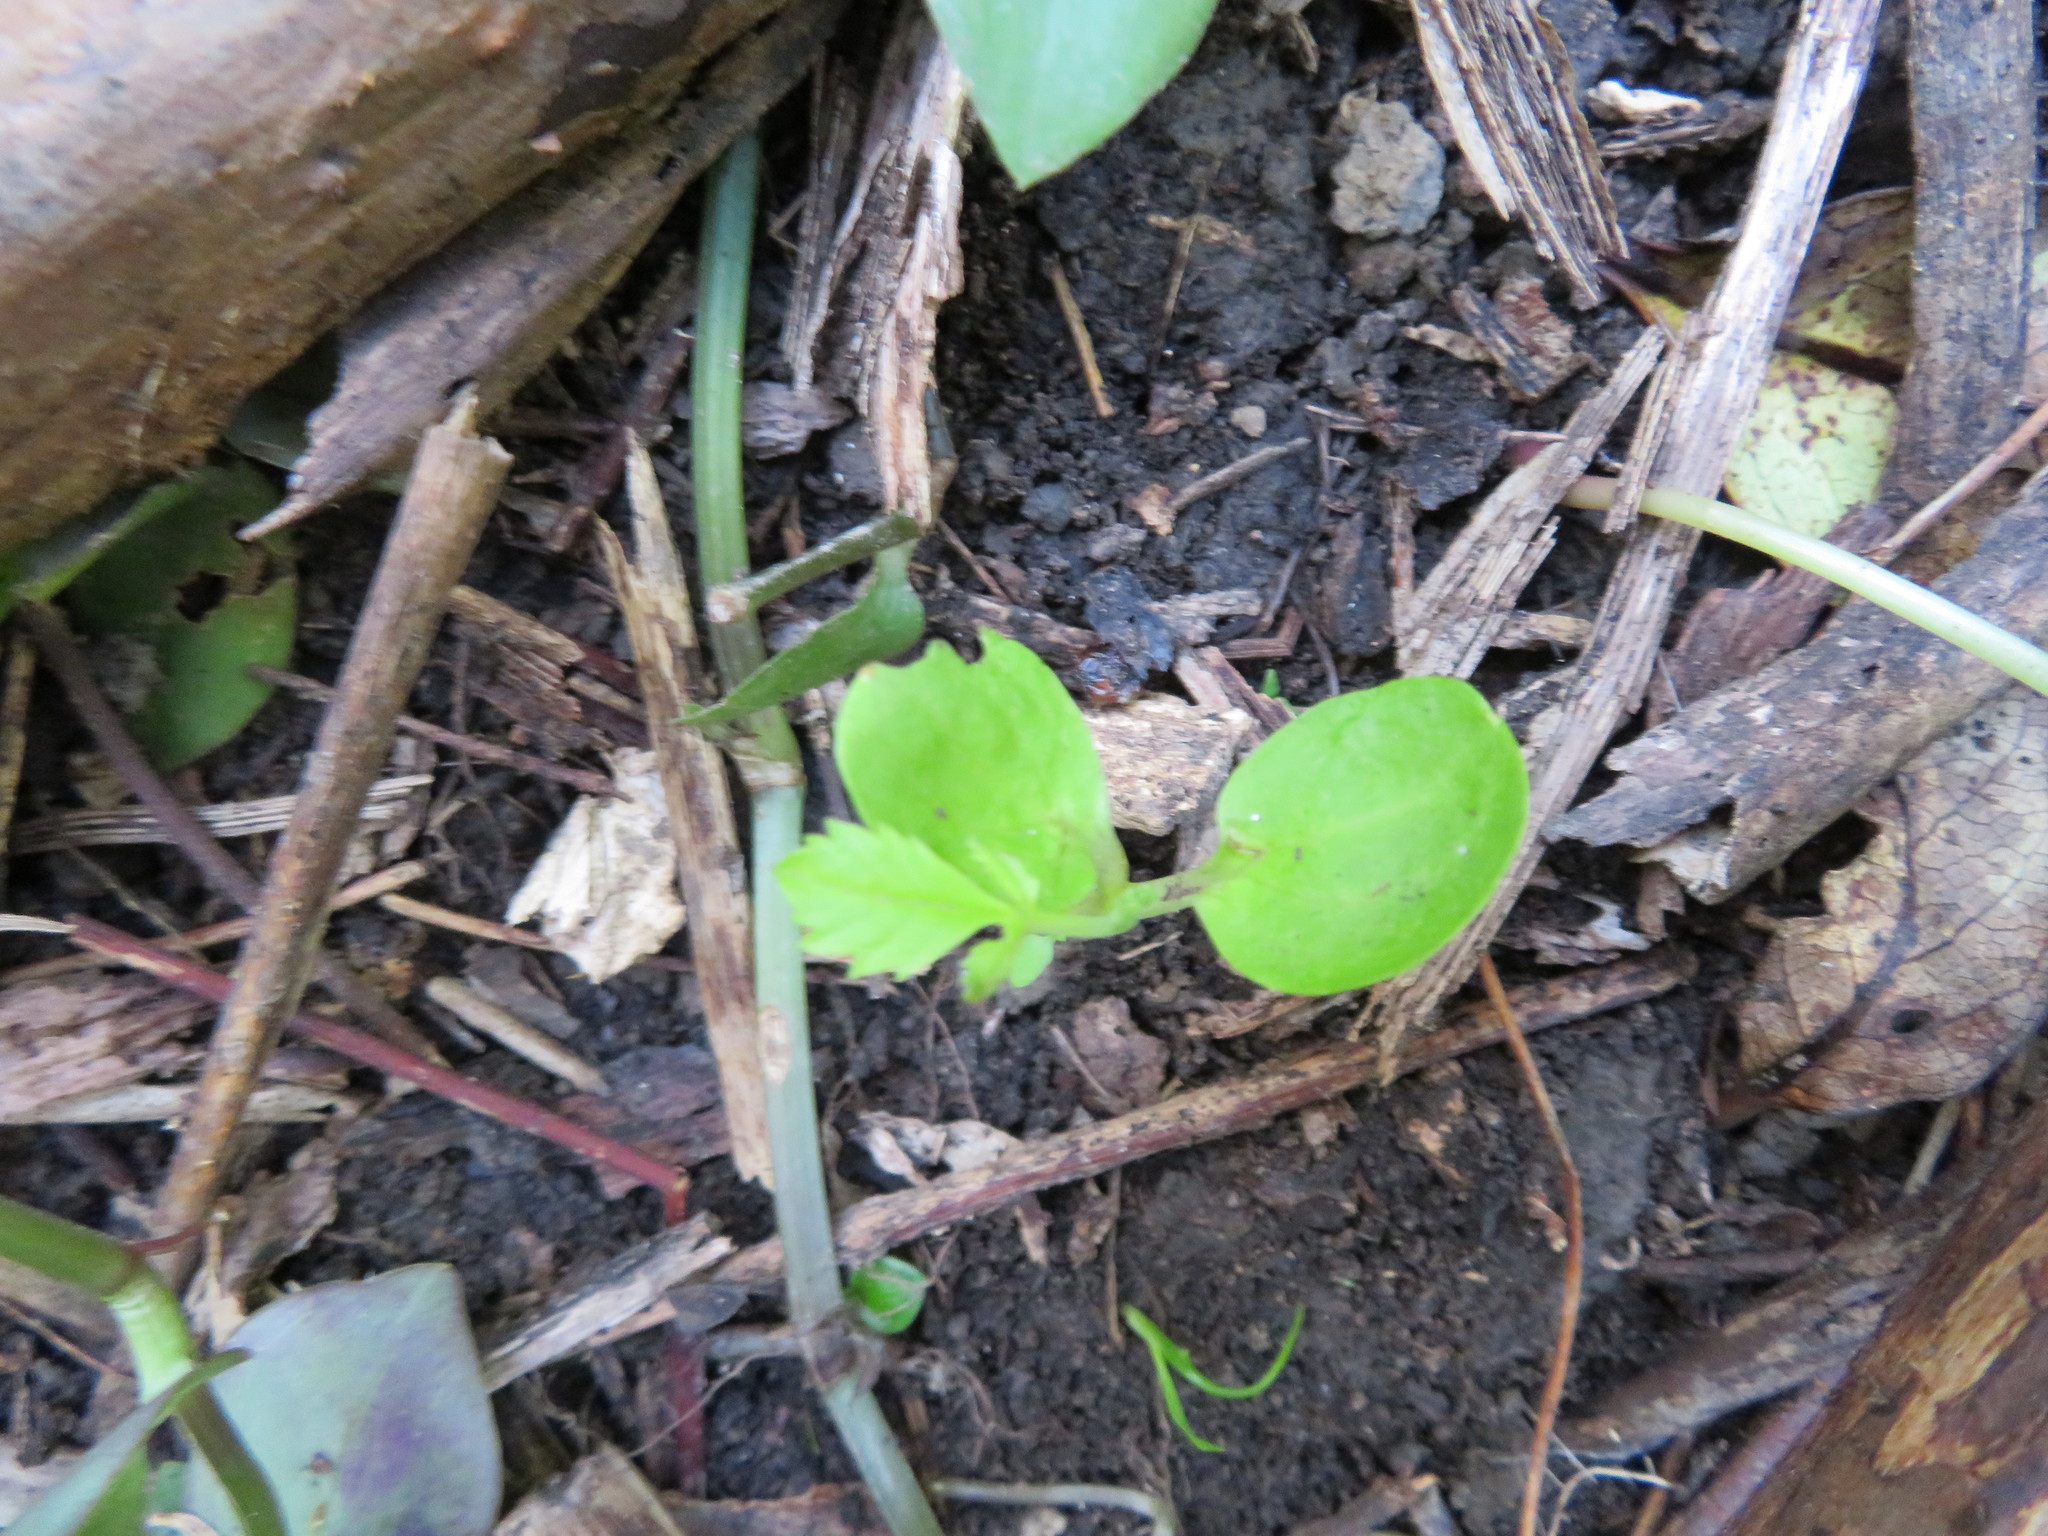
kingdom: Plantae
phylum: Tracheophyta
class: Magnoliopsida
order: Geraniales
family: Melianthaceae
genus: Melianthus
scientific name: Melianthus major
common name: Honey-flower
